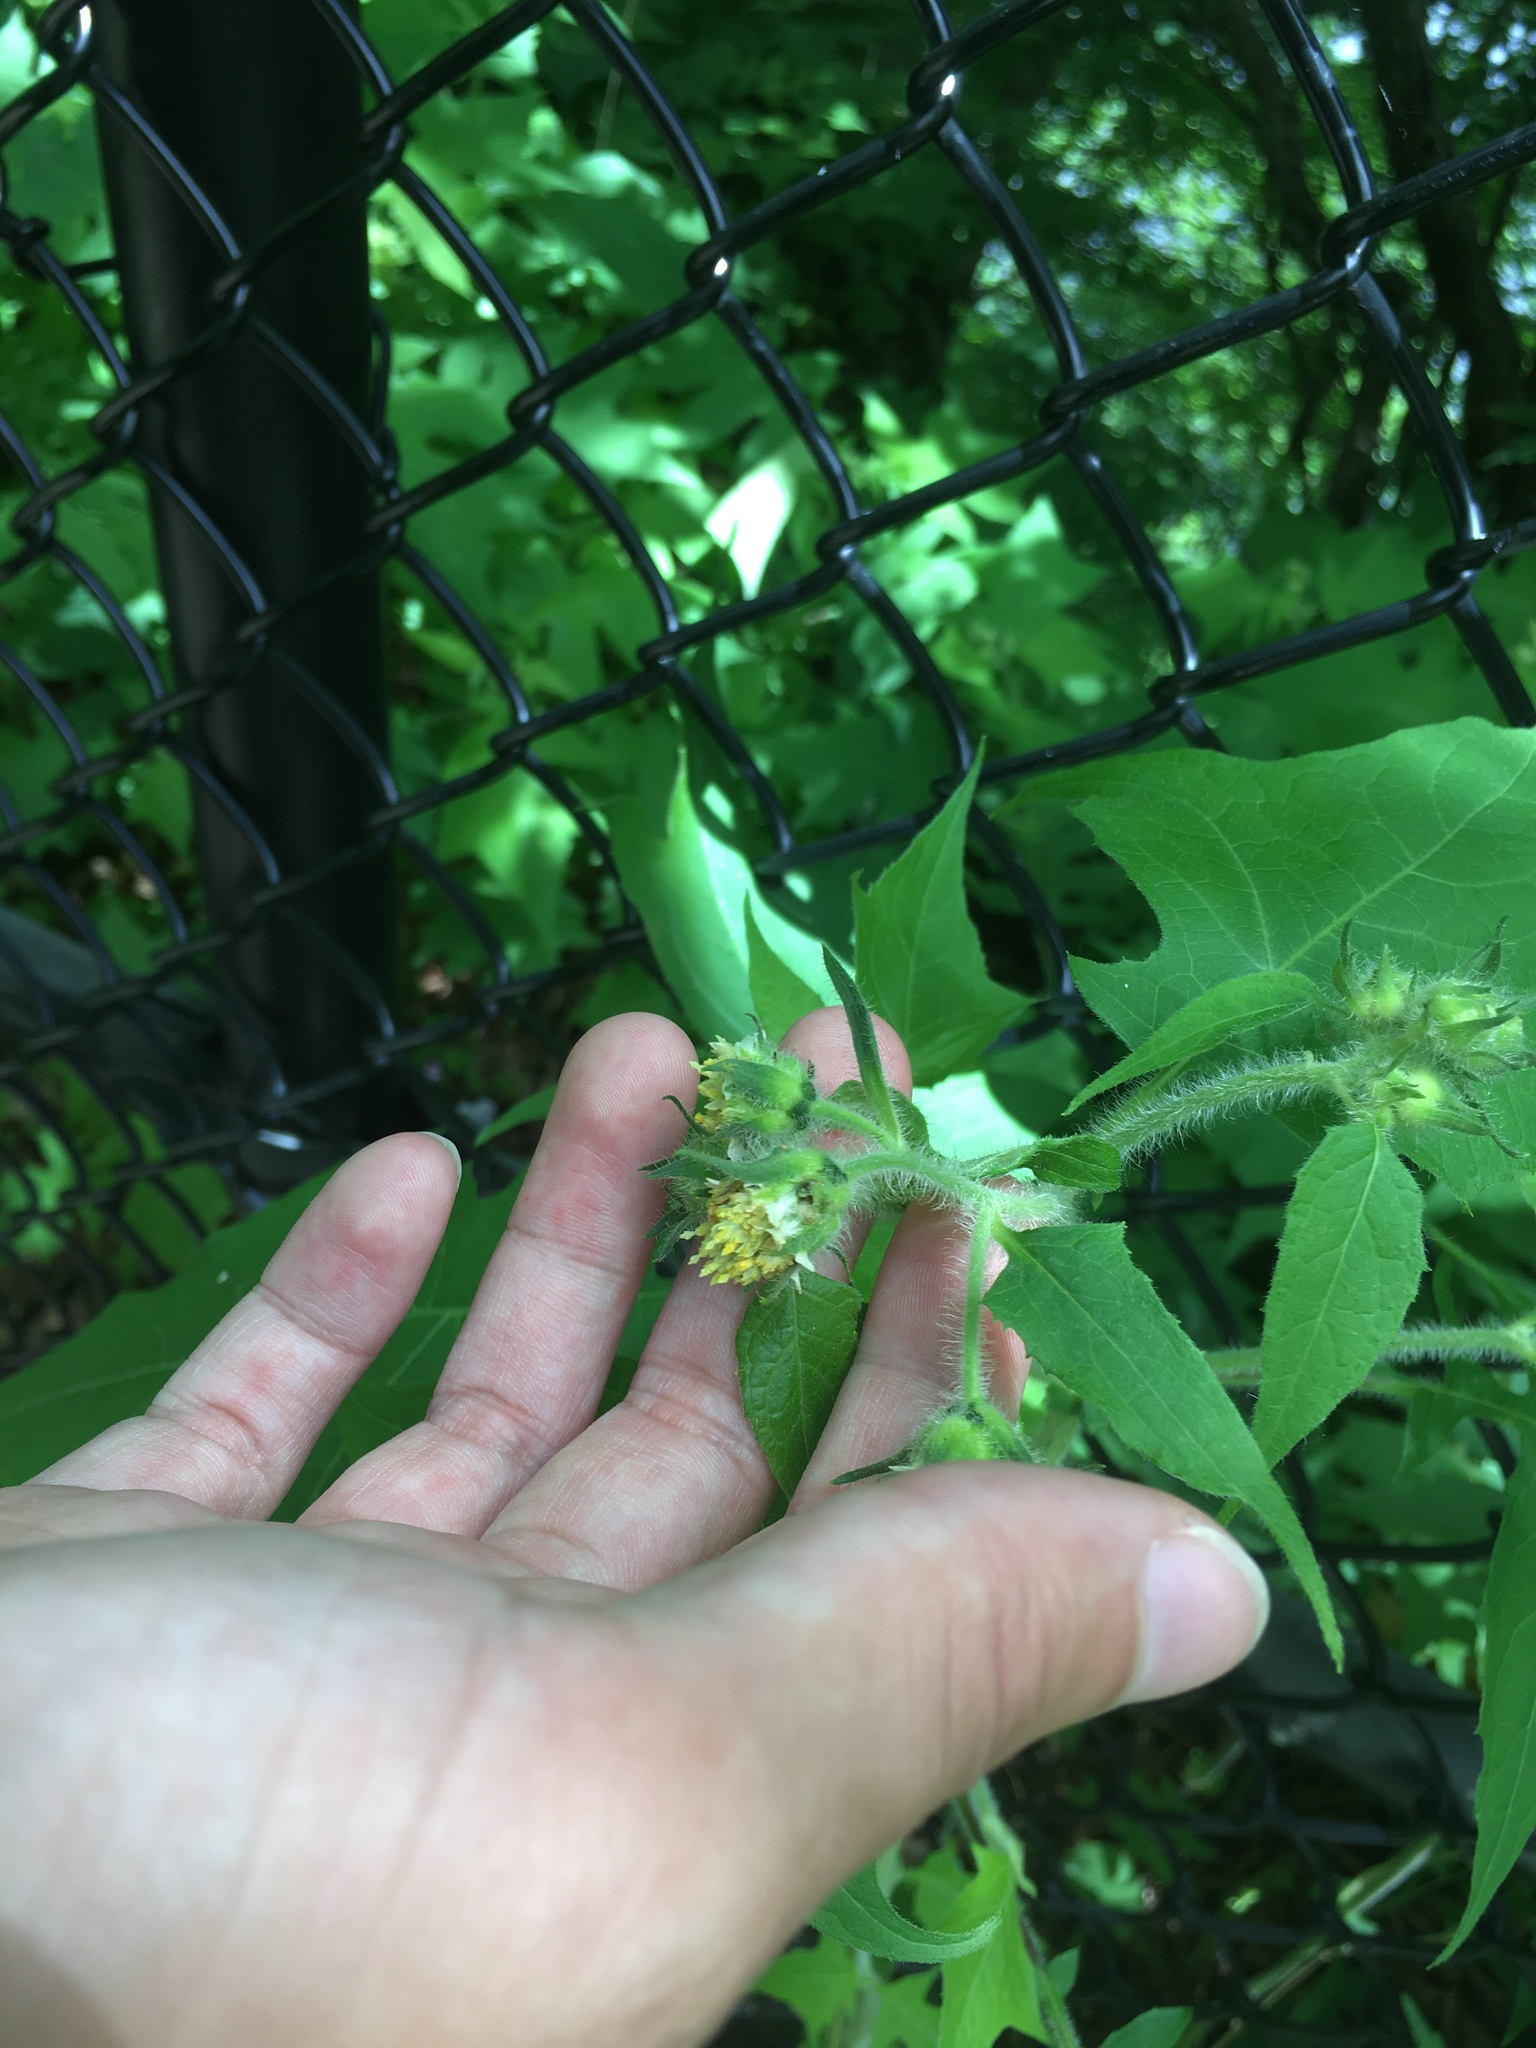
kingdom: Plantae
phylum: Tracheophyta
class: Magnoliopsida
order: Asterales
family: Asteraceae
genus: Polymnia
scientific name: Polymnia canadensis
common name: Pale-flowered leafcup
